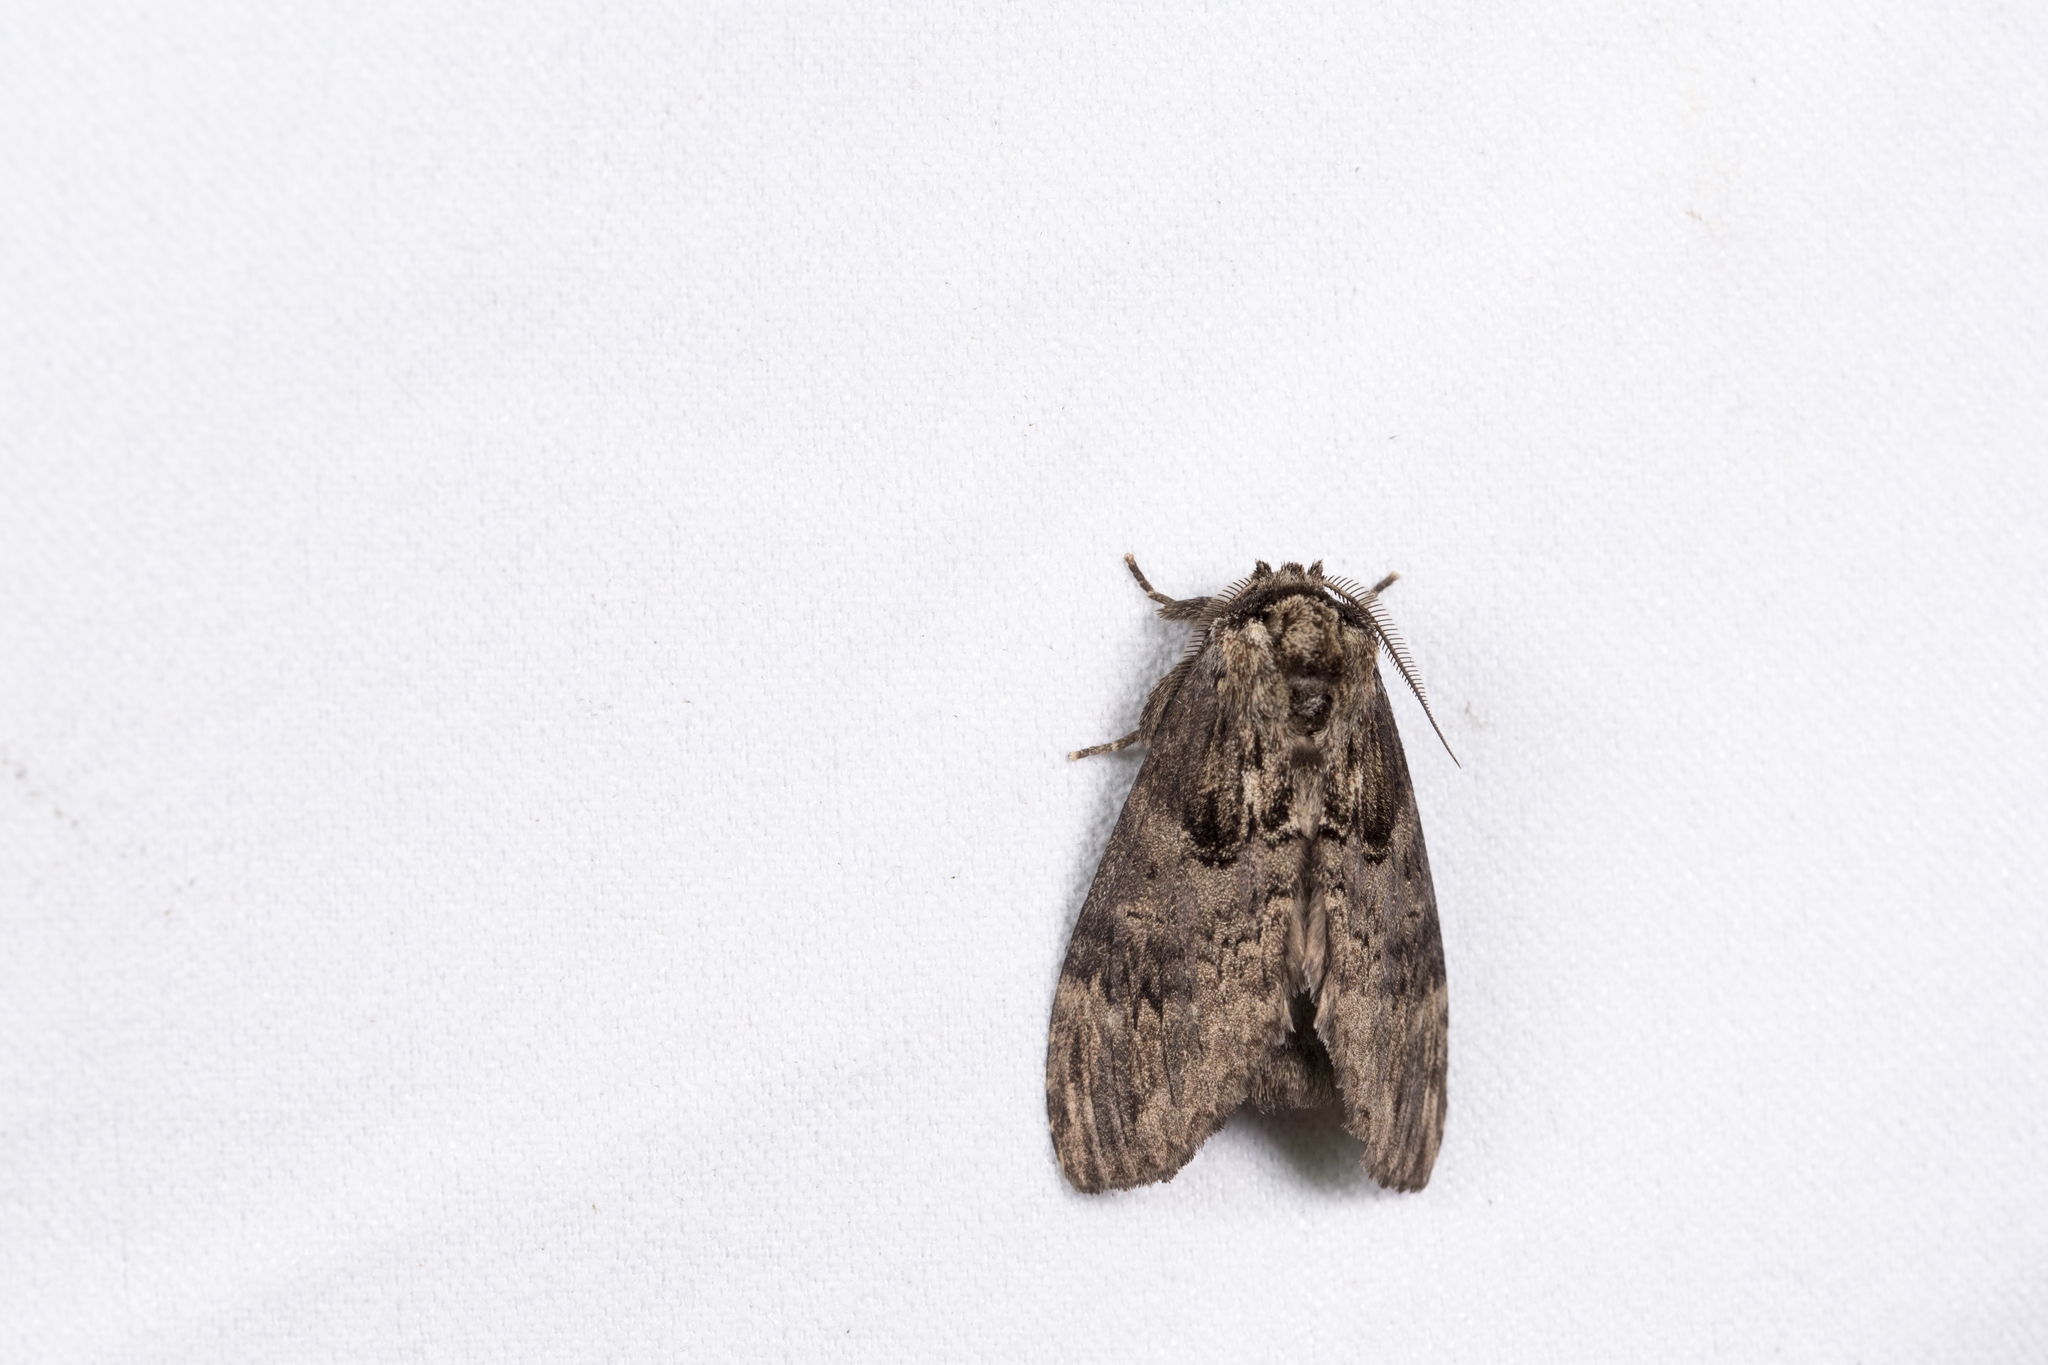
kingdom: Animalia
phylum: Arthropoda
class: Insecta
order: Lepidoptera
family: Notodontidae
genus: Semidonta
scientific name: Semidonta Hyperaeschrella nigribasis
